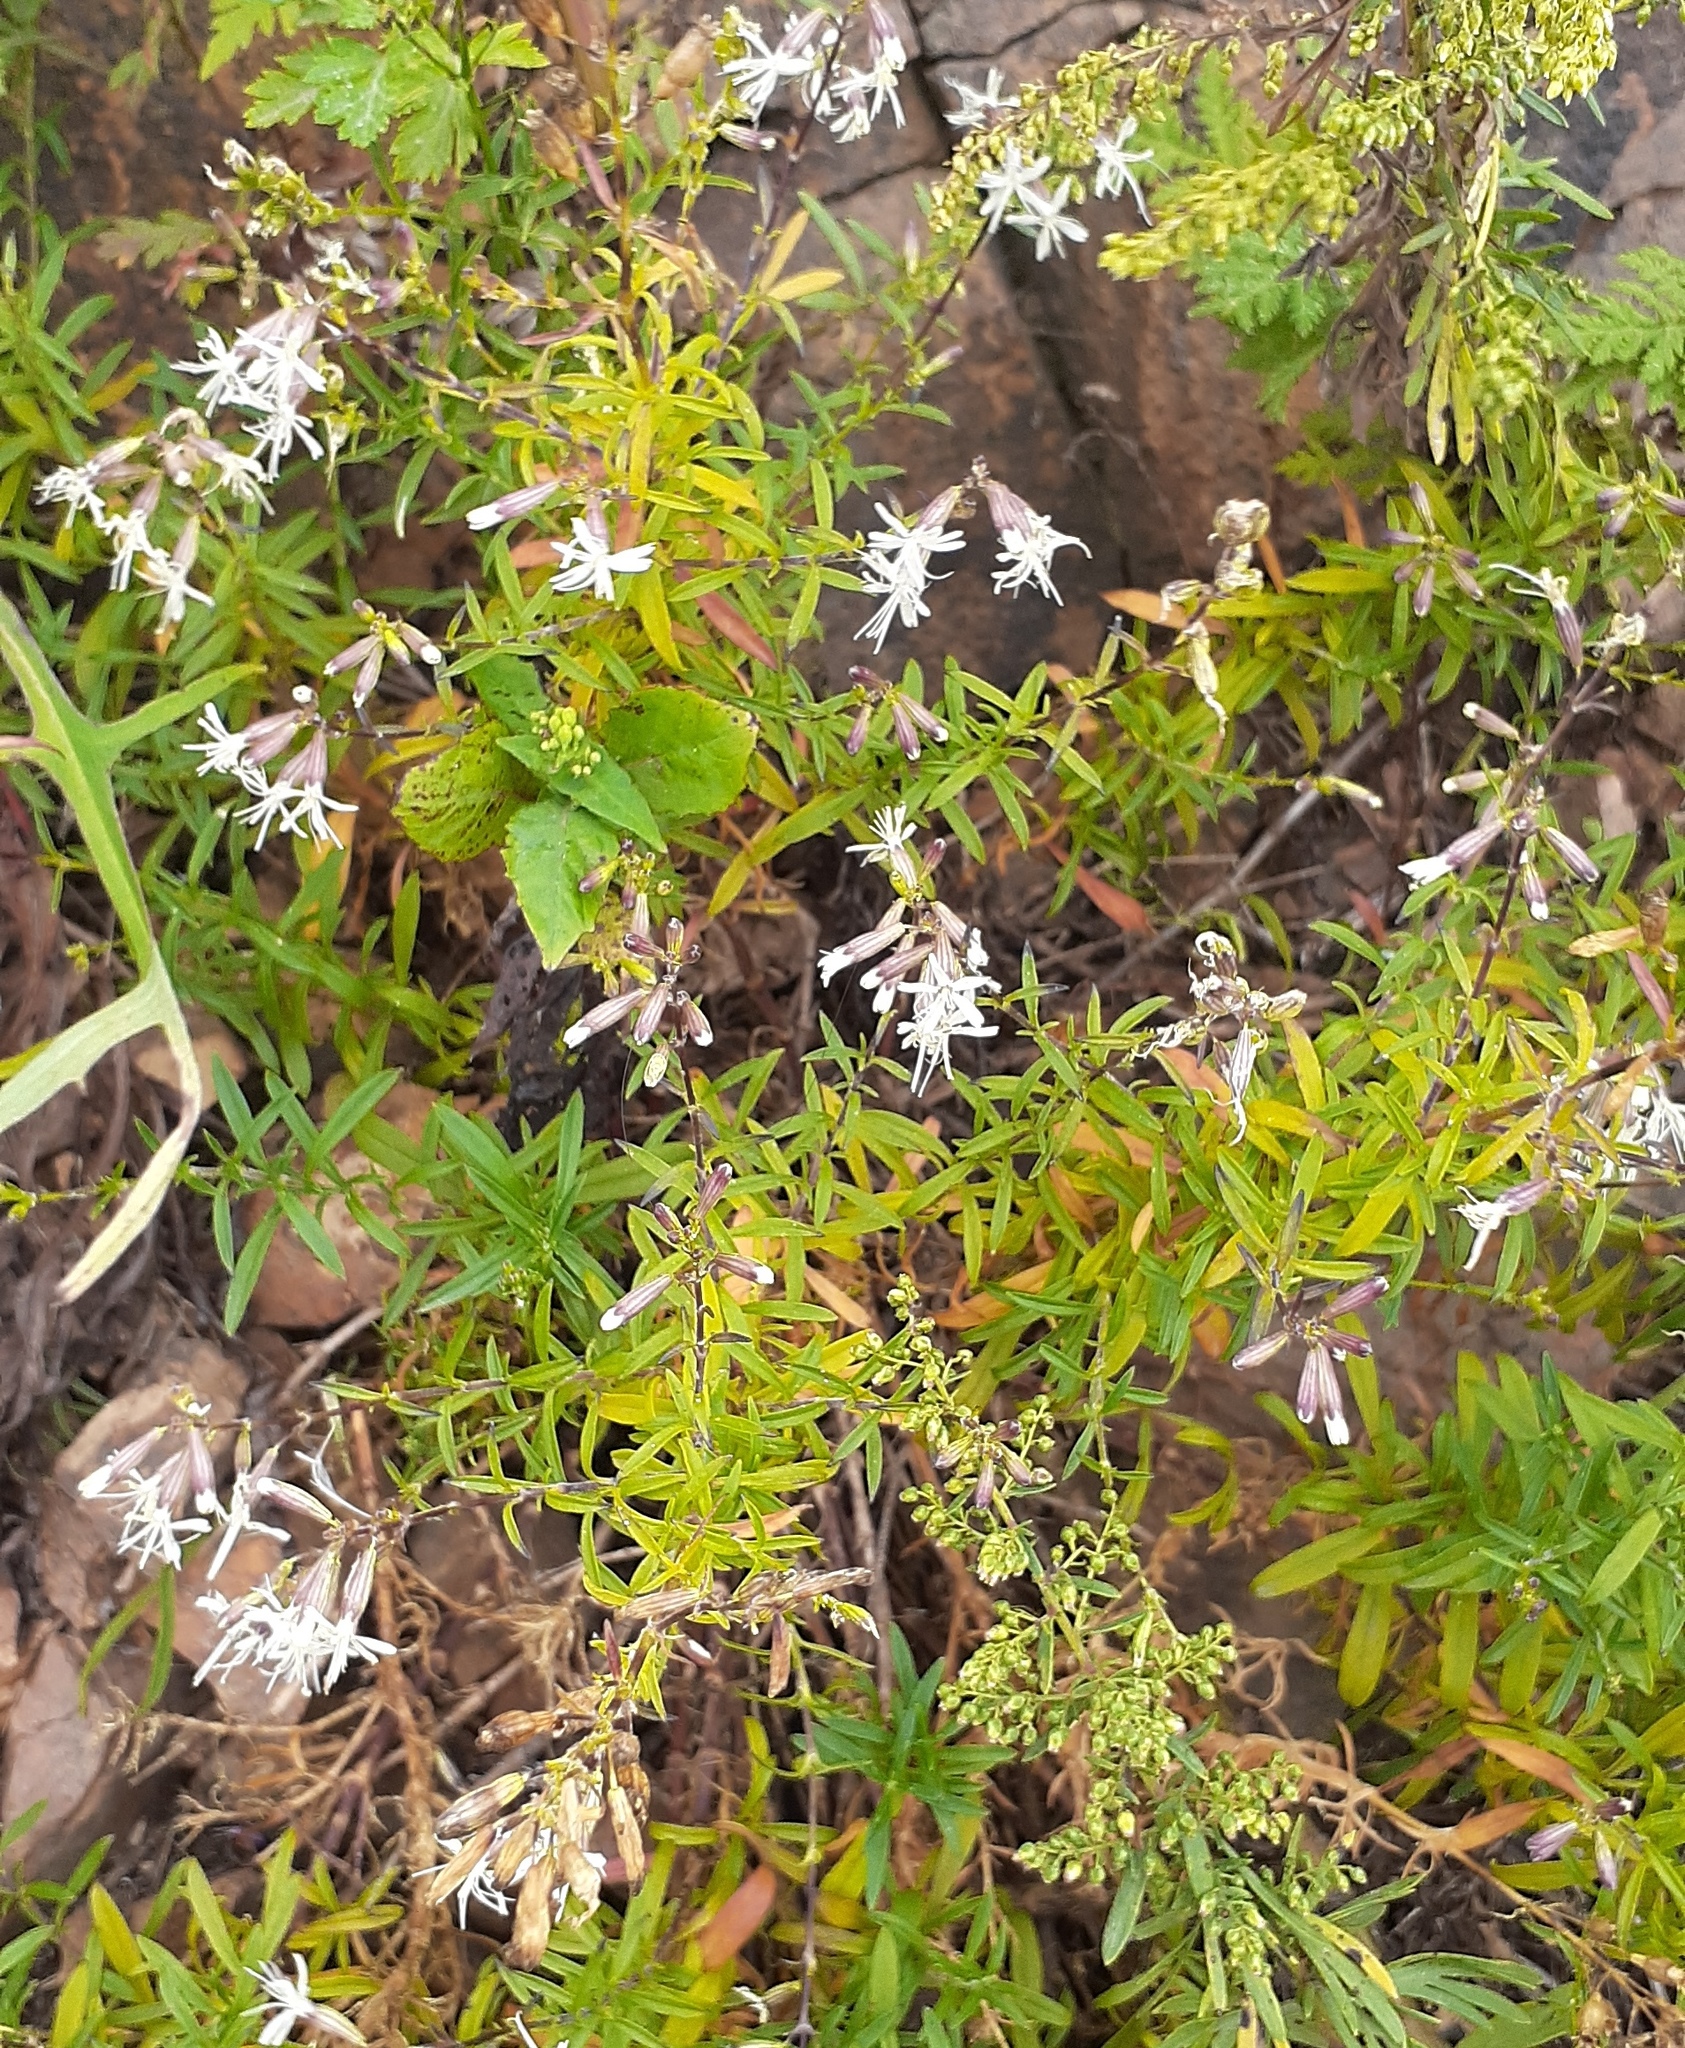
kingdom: Plantae
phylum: Tracheophyta
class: Magnoliopsida
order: Caryophyllales
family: Caryophyllaceae
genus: Silene
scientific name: Silene foliosa
